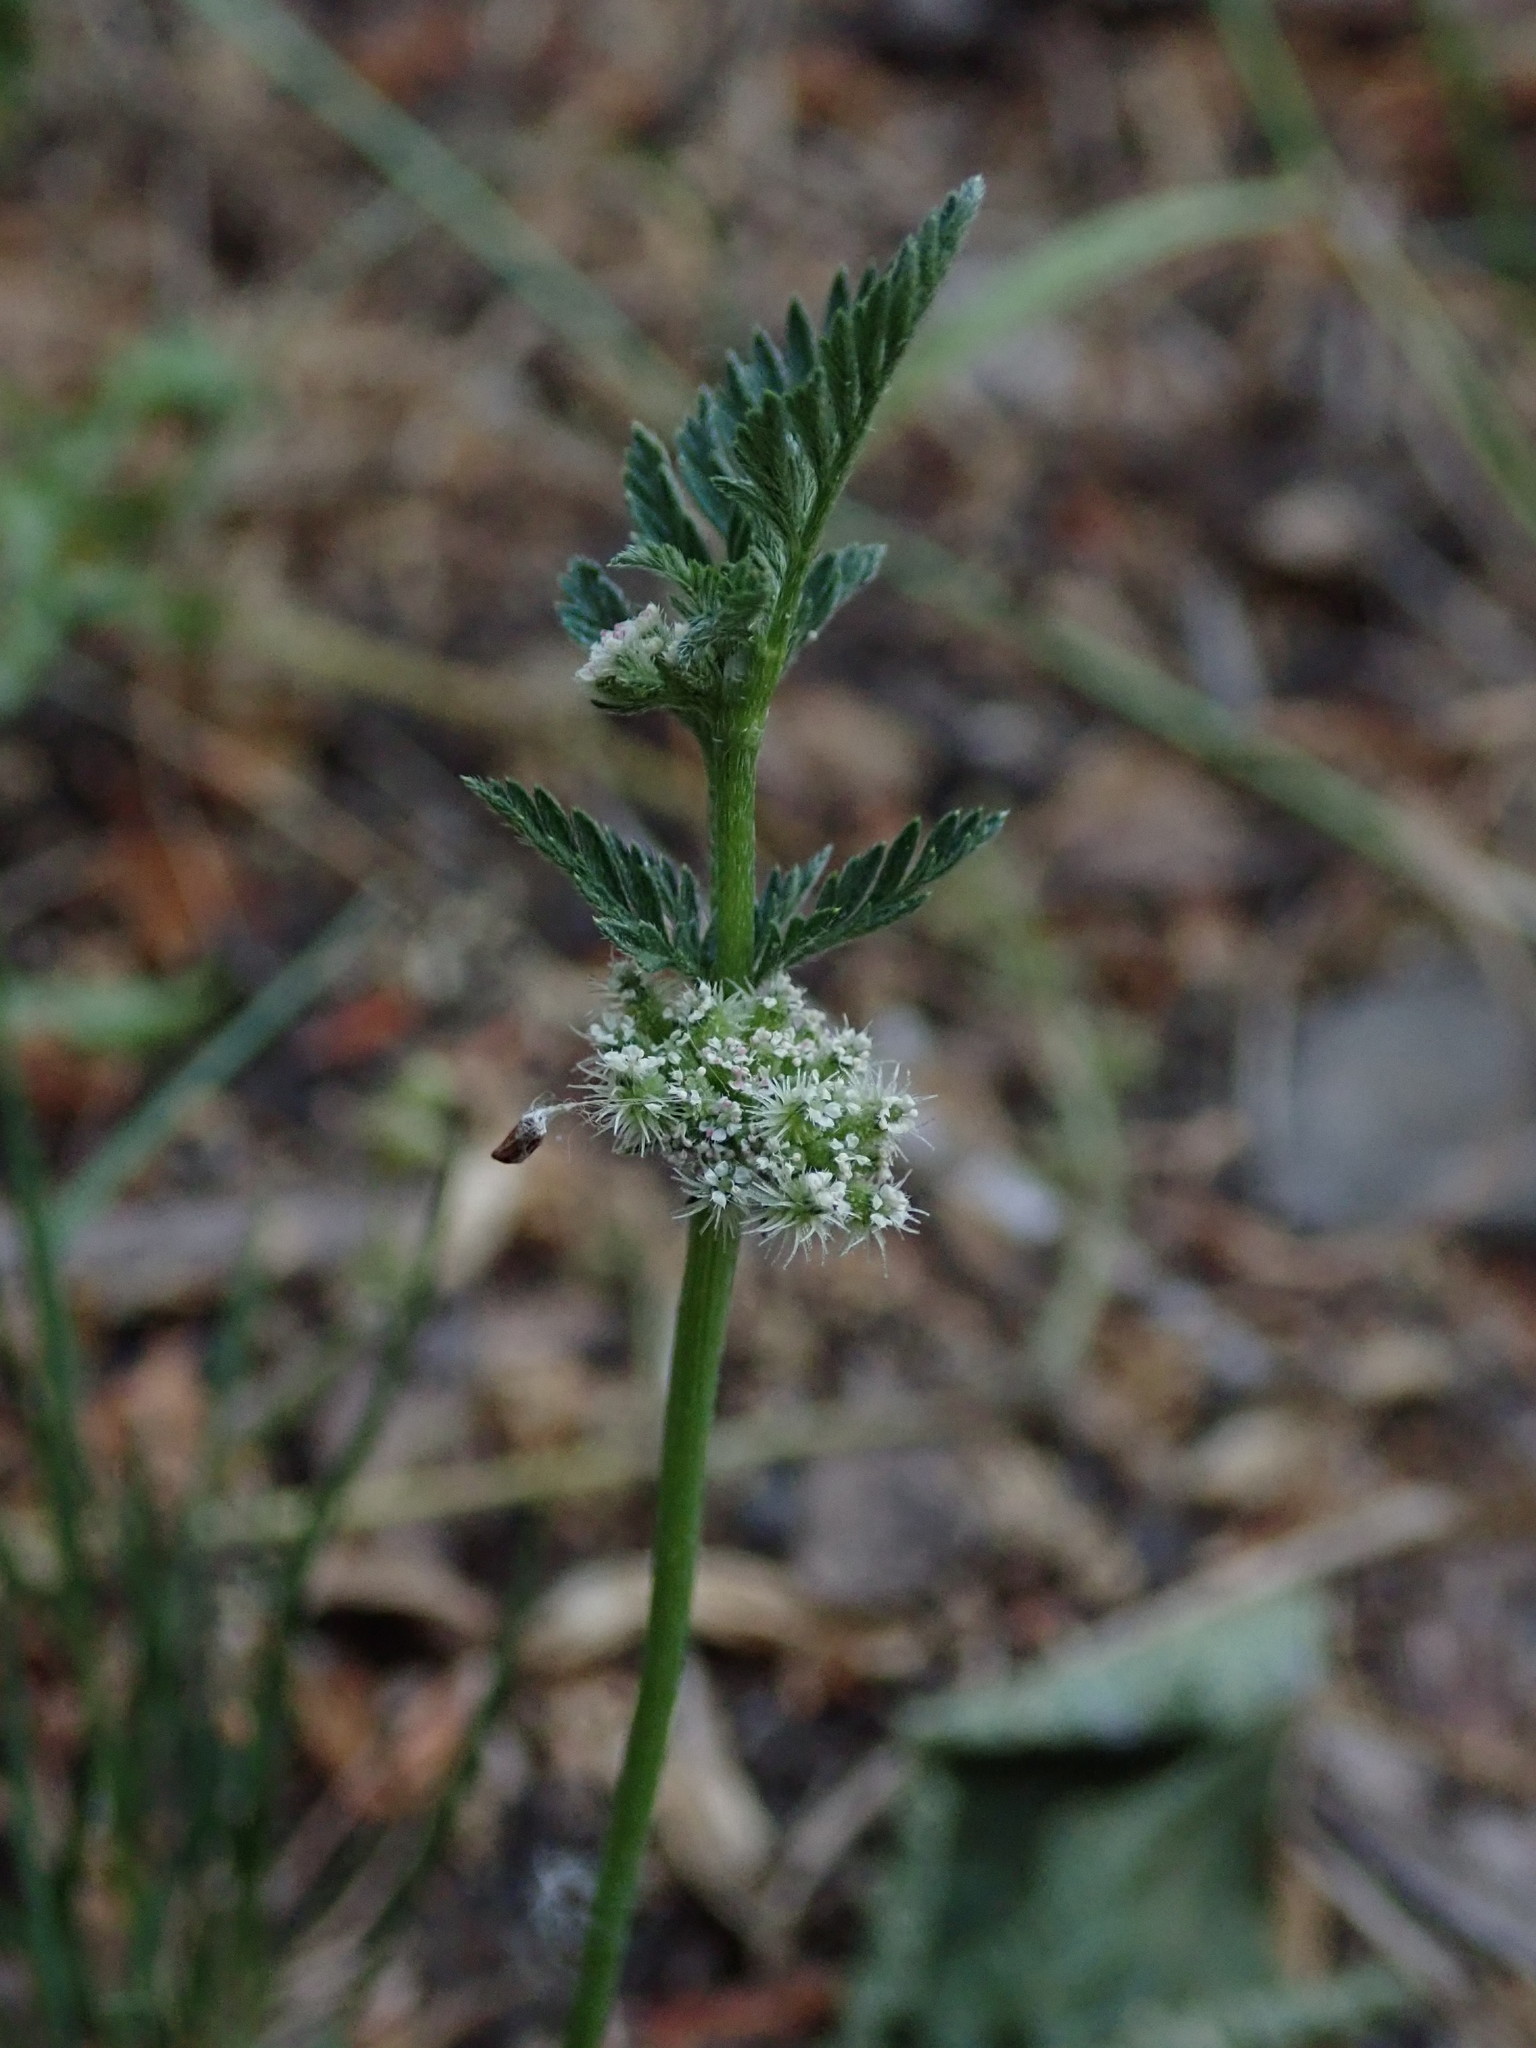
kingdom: Plantae
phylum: Tracheophyta
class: Magnoliopsida
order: Apiales
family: Apiaceae
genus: Torilis
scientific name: Torilis nodosa
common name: Knotted hedge-parsley
